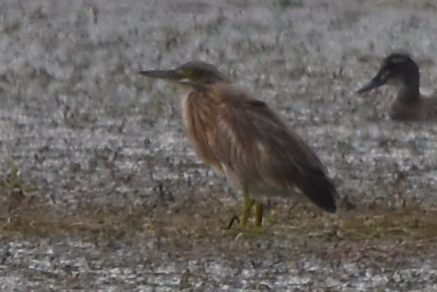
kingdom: Animalia
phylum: Chordata
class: Aves
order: Pelecaniformes
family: Ardeidae
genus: Ardeola
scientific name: Ardeola ralloides
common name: Squacco heron
